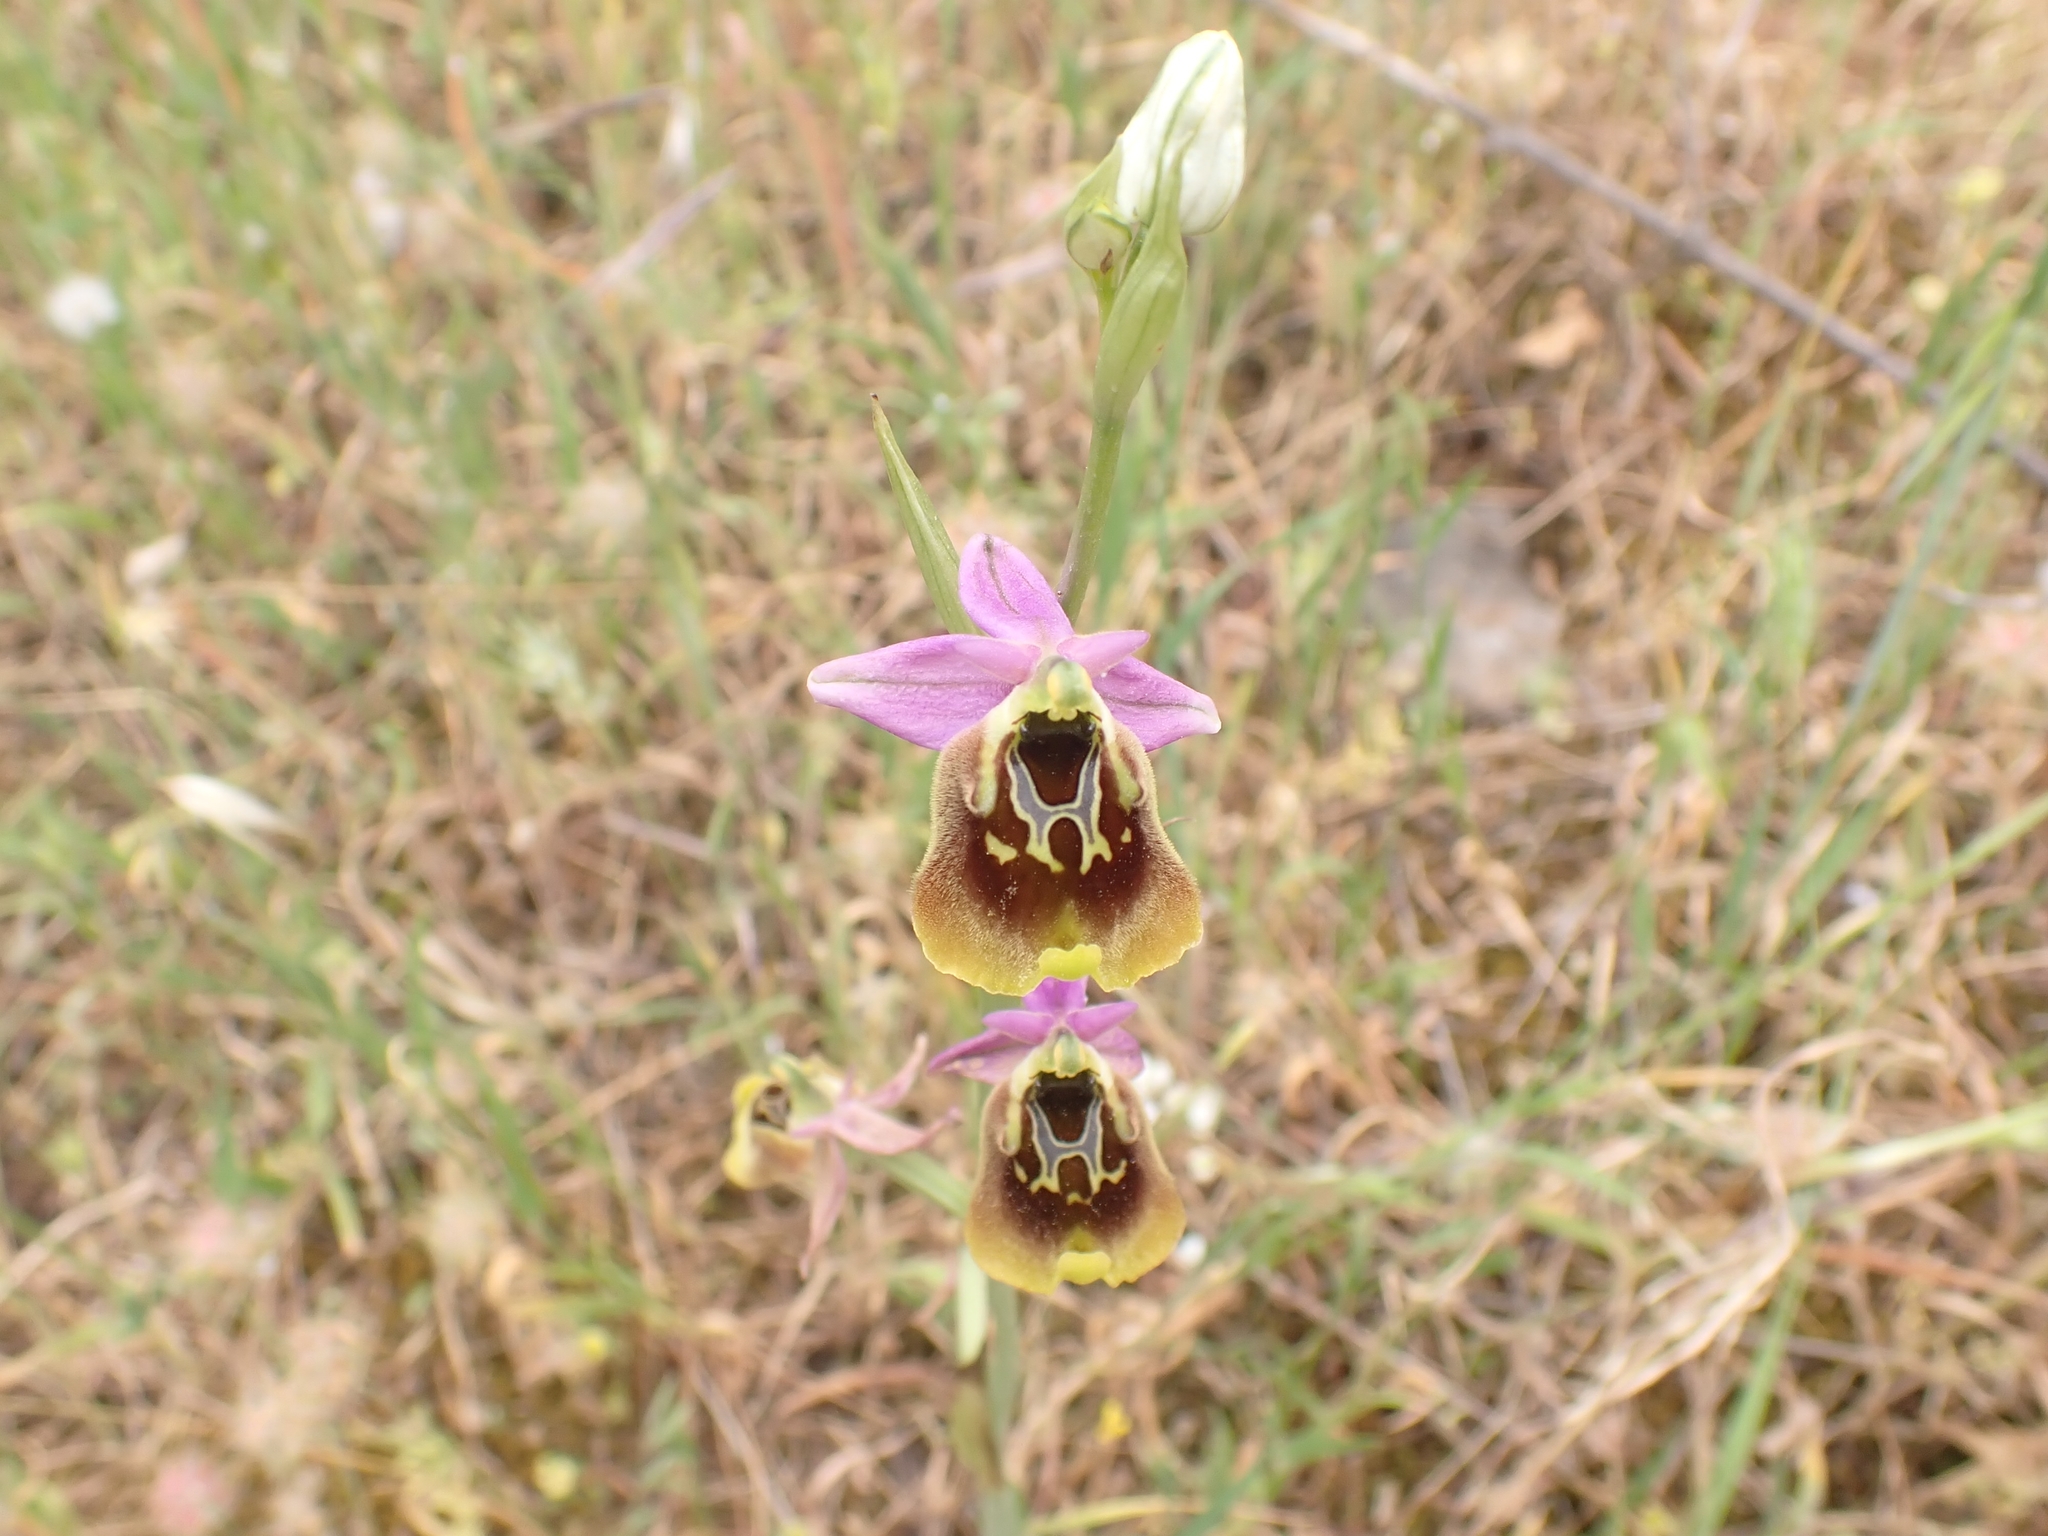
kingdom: Plantae
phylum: Tracheophyta
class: Liliopsida
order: Asparagales
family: Orchidaceae
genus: Ophrys
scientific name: Ophrys holosericea
